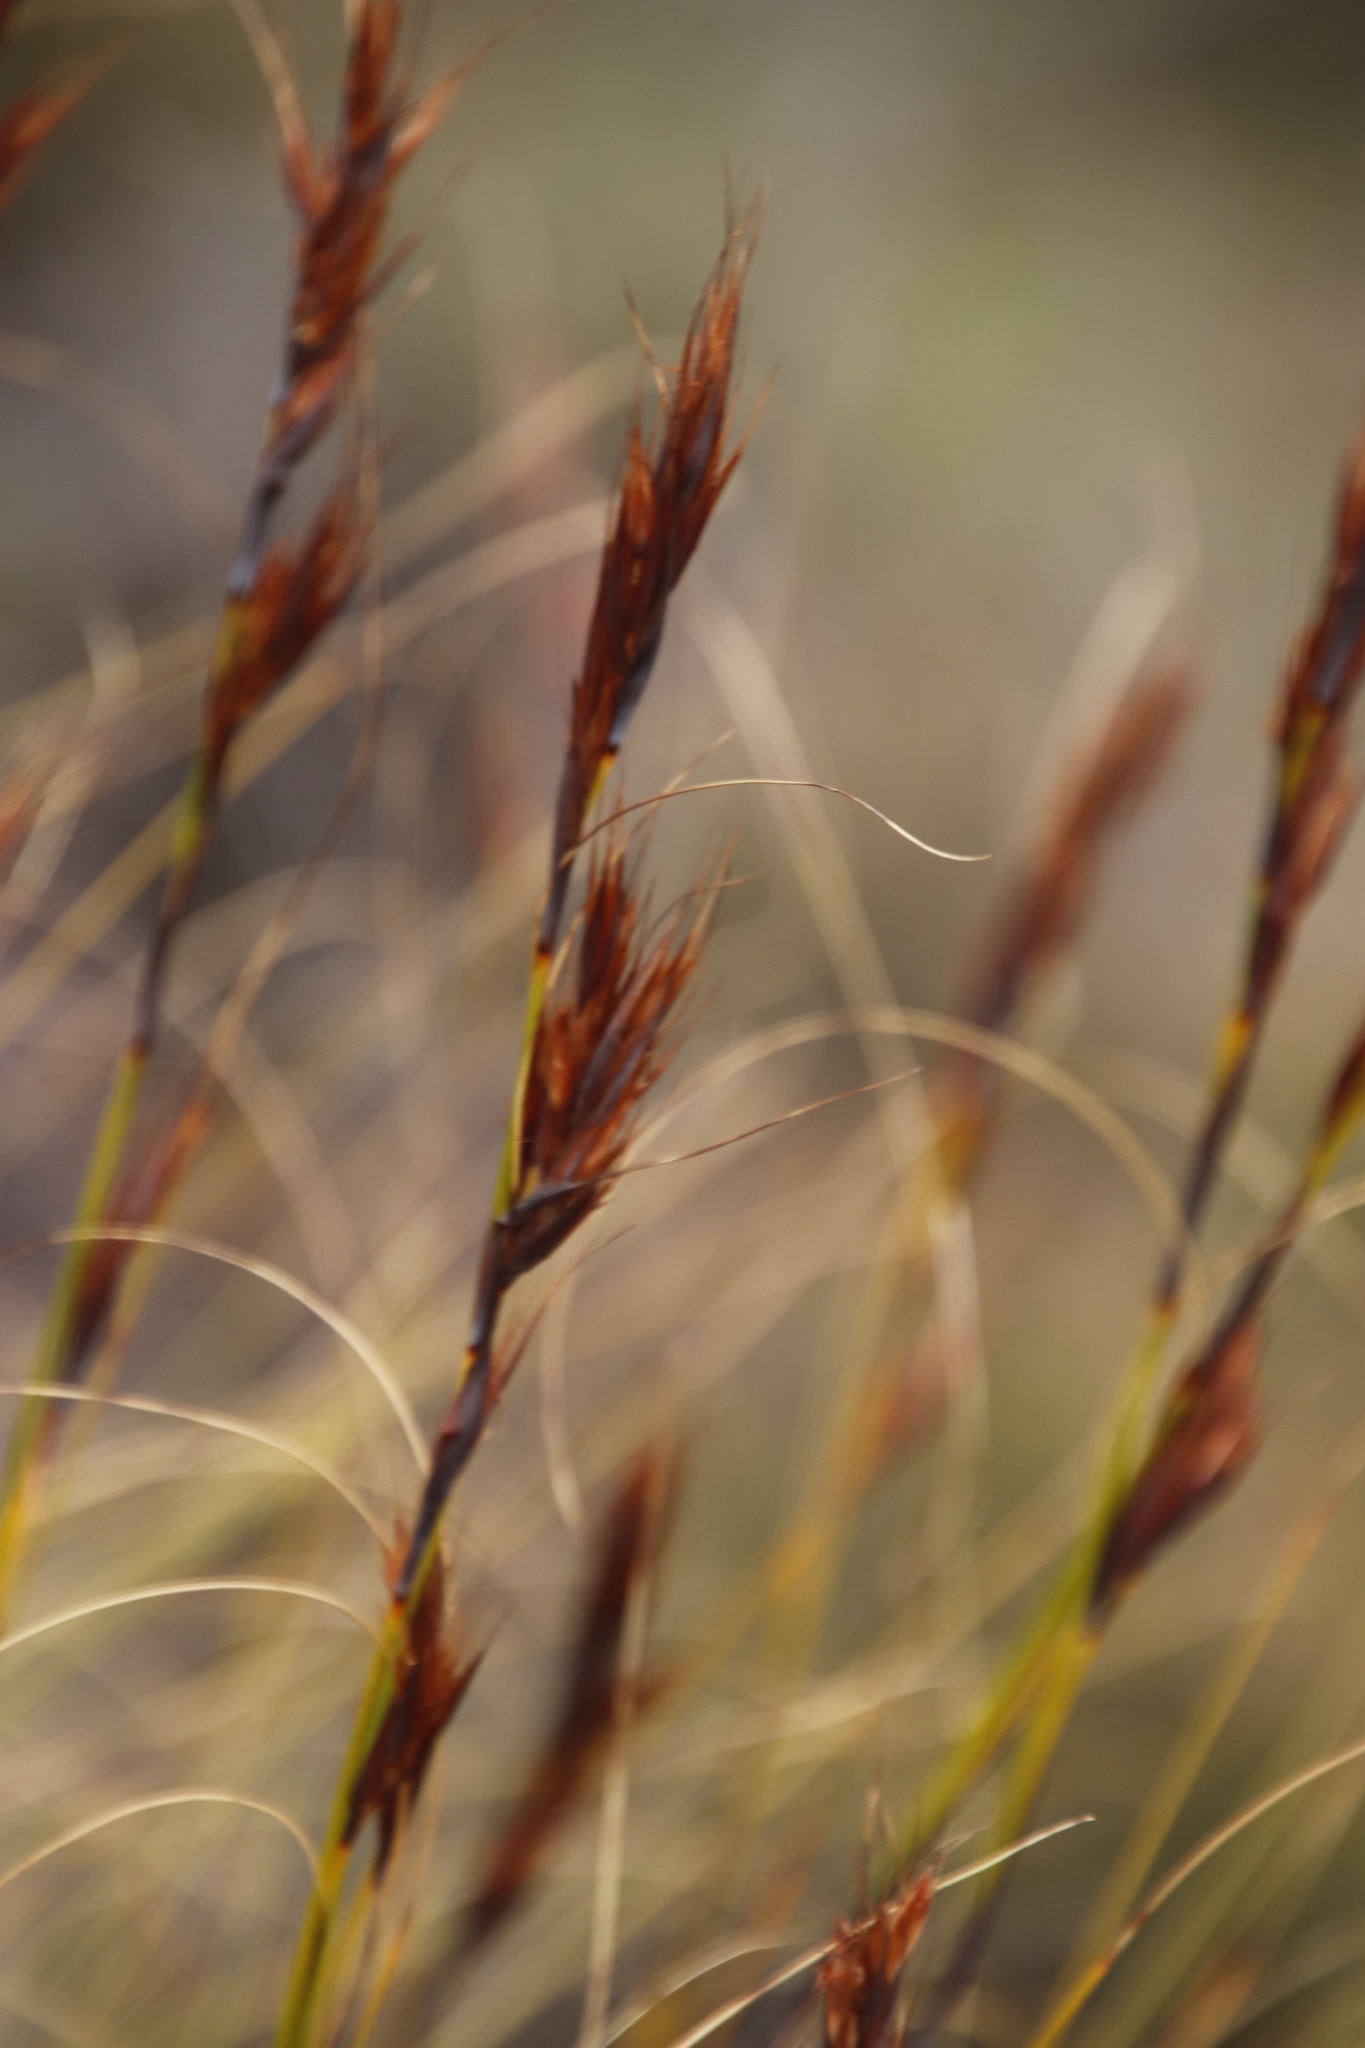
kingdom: Plantae
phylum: Tracheophyta
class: Liliopsida
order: Poales
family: Cyperaceae
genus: Tetraria
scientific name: Tetraria ustulata
